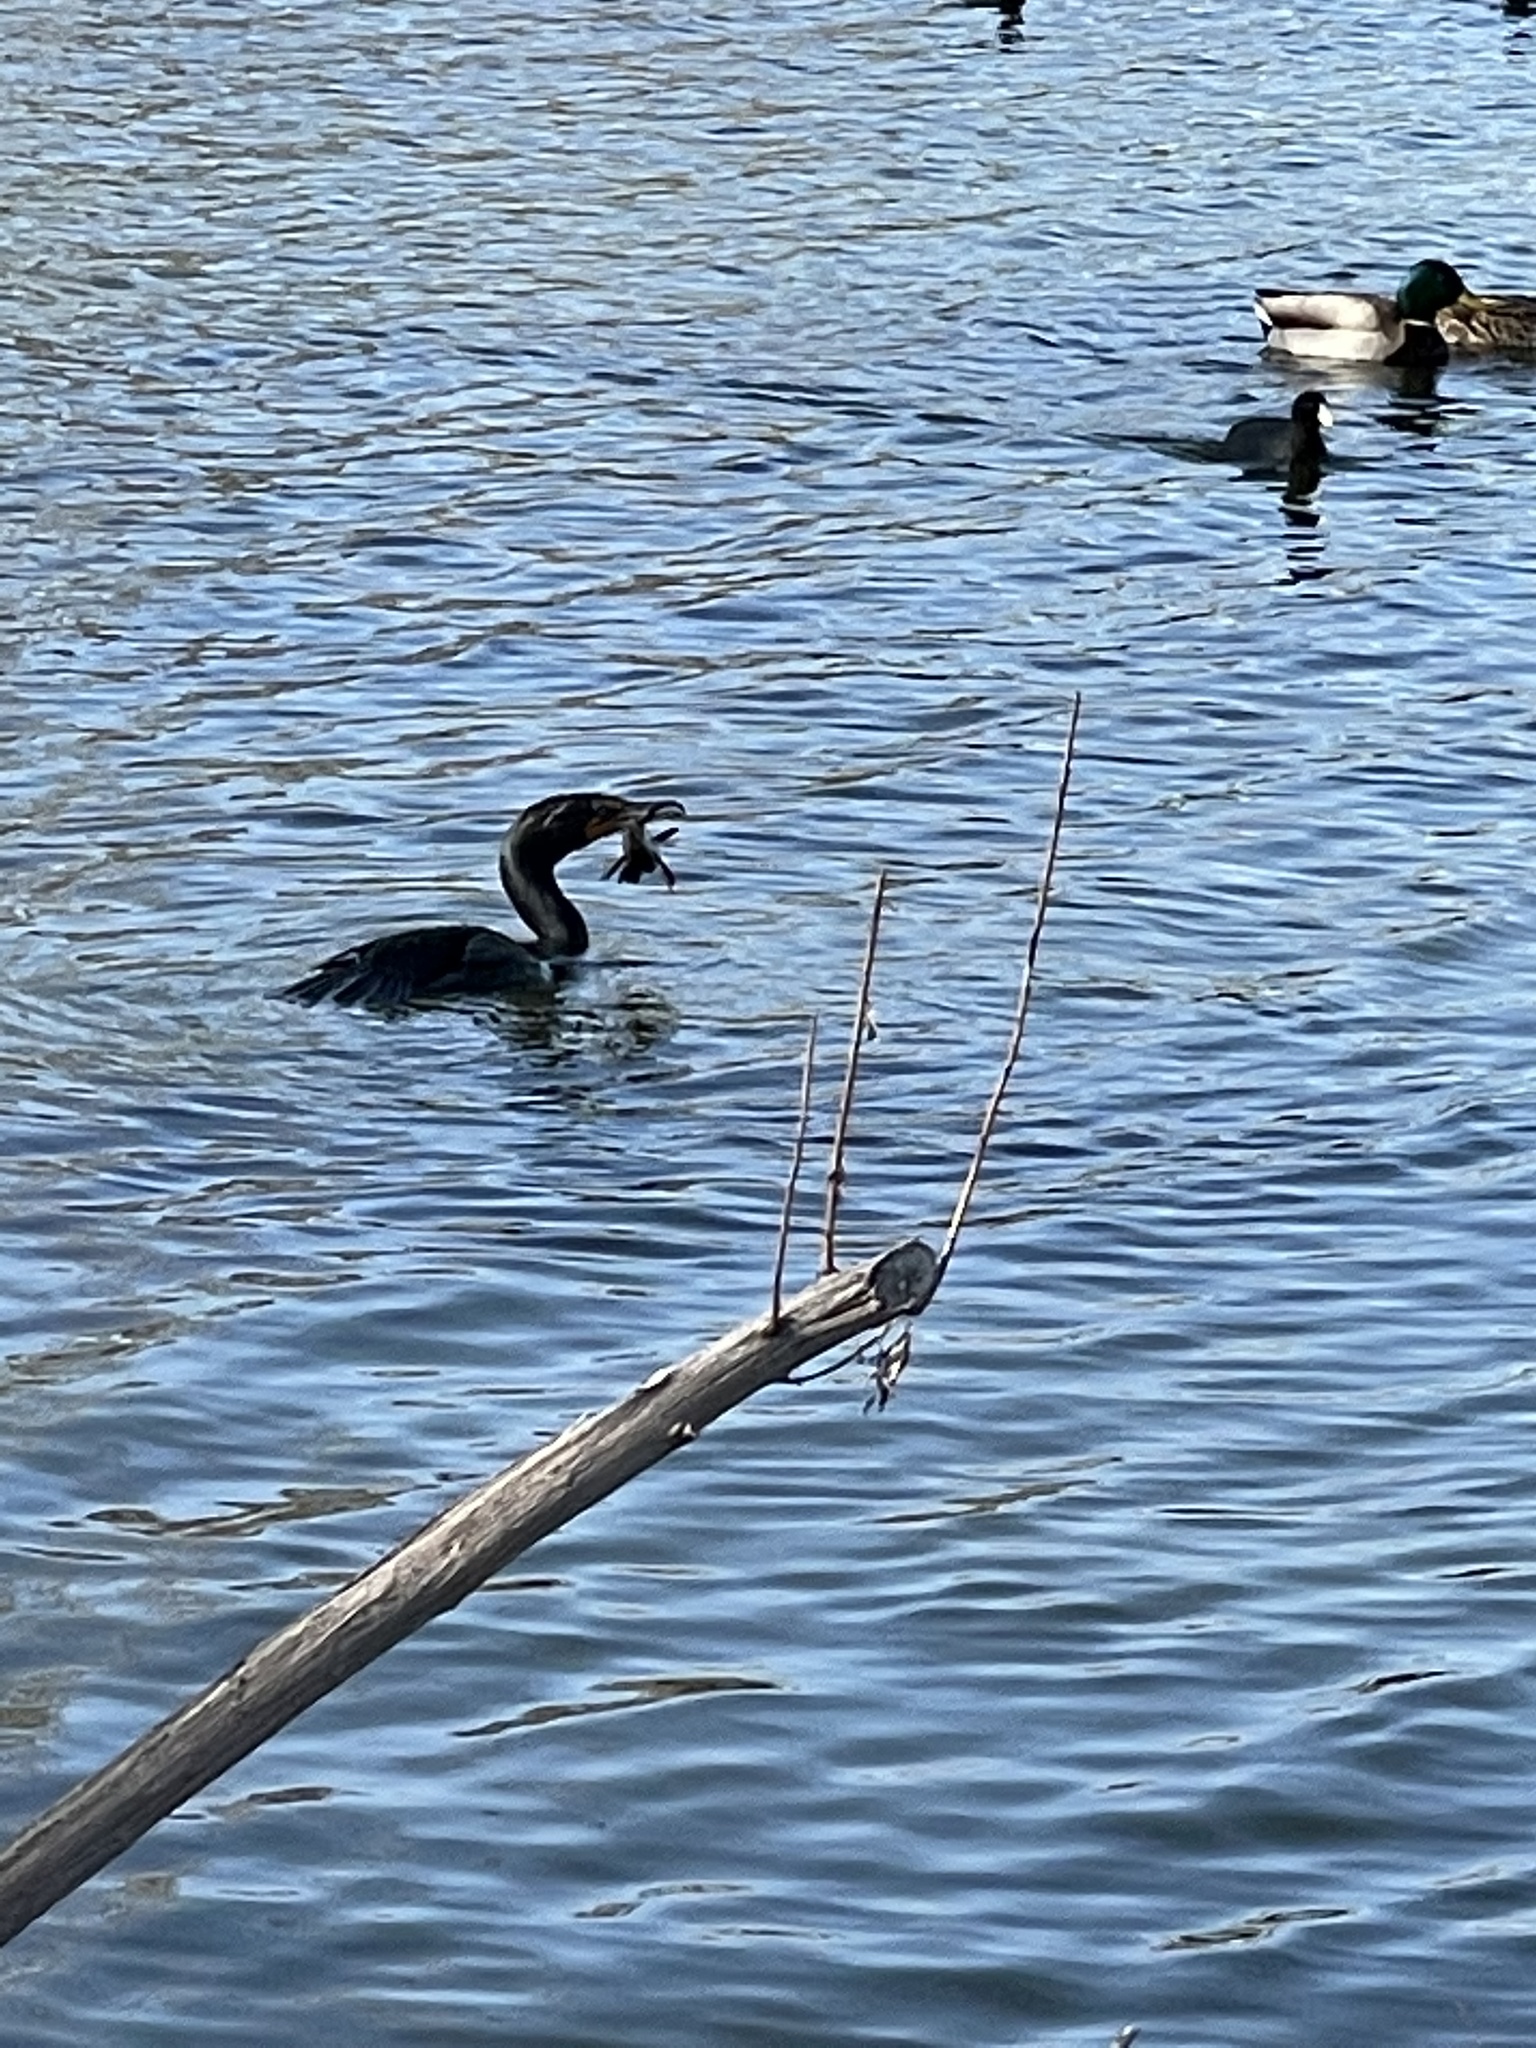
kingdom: Animalia
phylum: Chordata
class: Aves
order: Suliformes
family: Phalacrocoracidae
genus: Phalacrocorax
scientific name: Phalacrocorax auritus
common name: Double-crested cormorant
